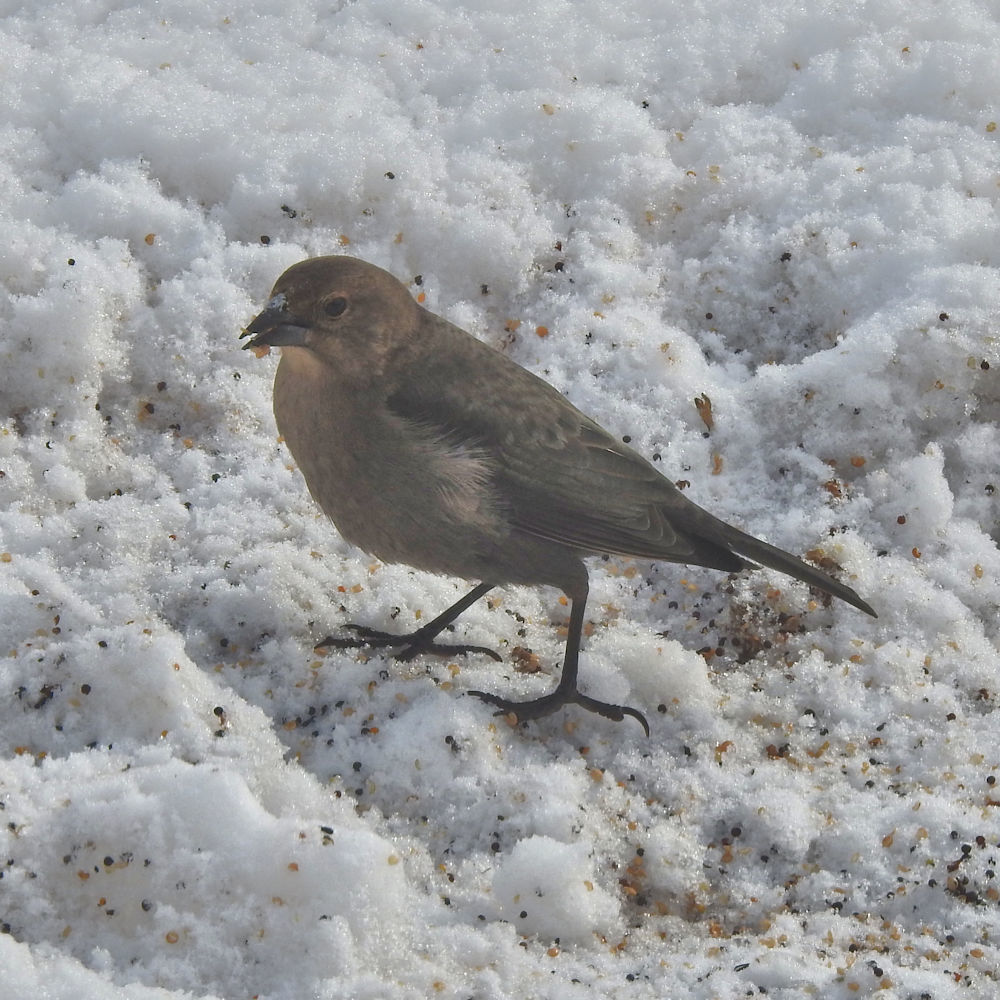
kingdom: Animalia
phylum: Chordata
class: Aves
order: Passeriformes
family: Icteridae
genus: Molothrus
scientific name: Molothrus ater
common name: Brown-headed cowbird
